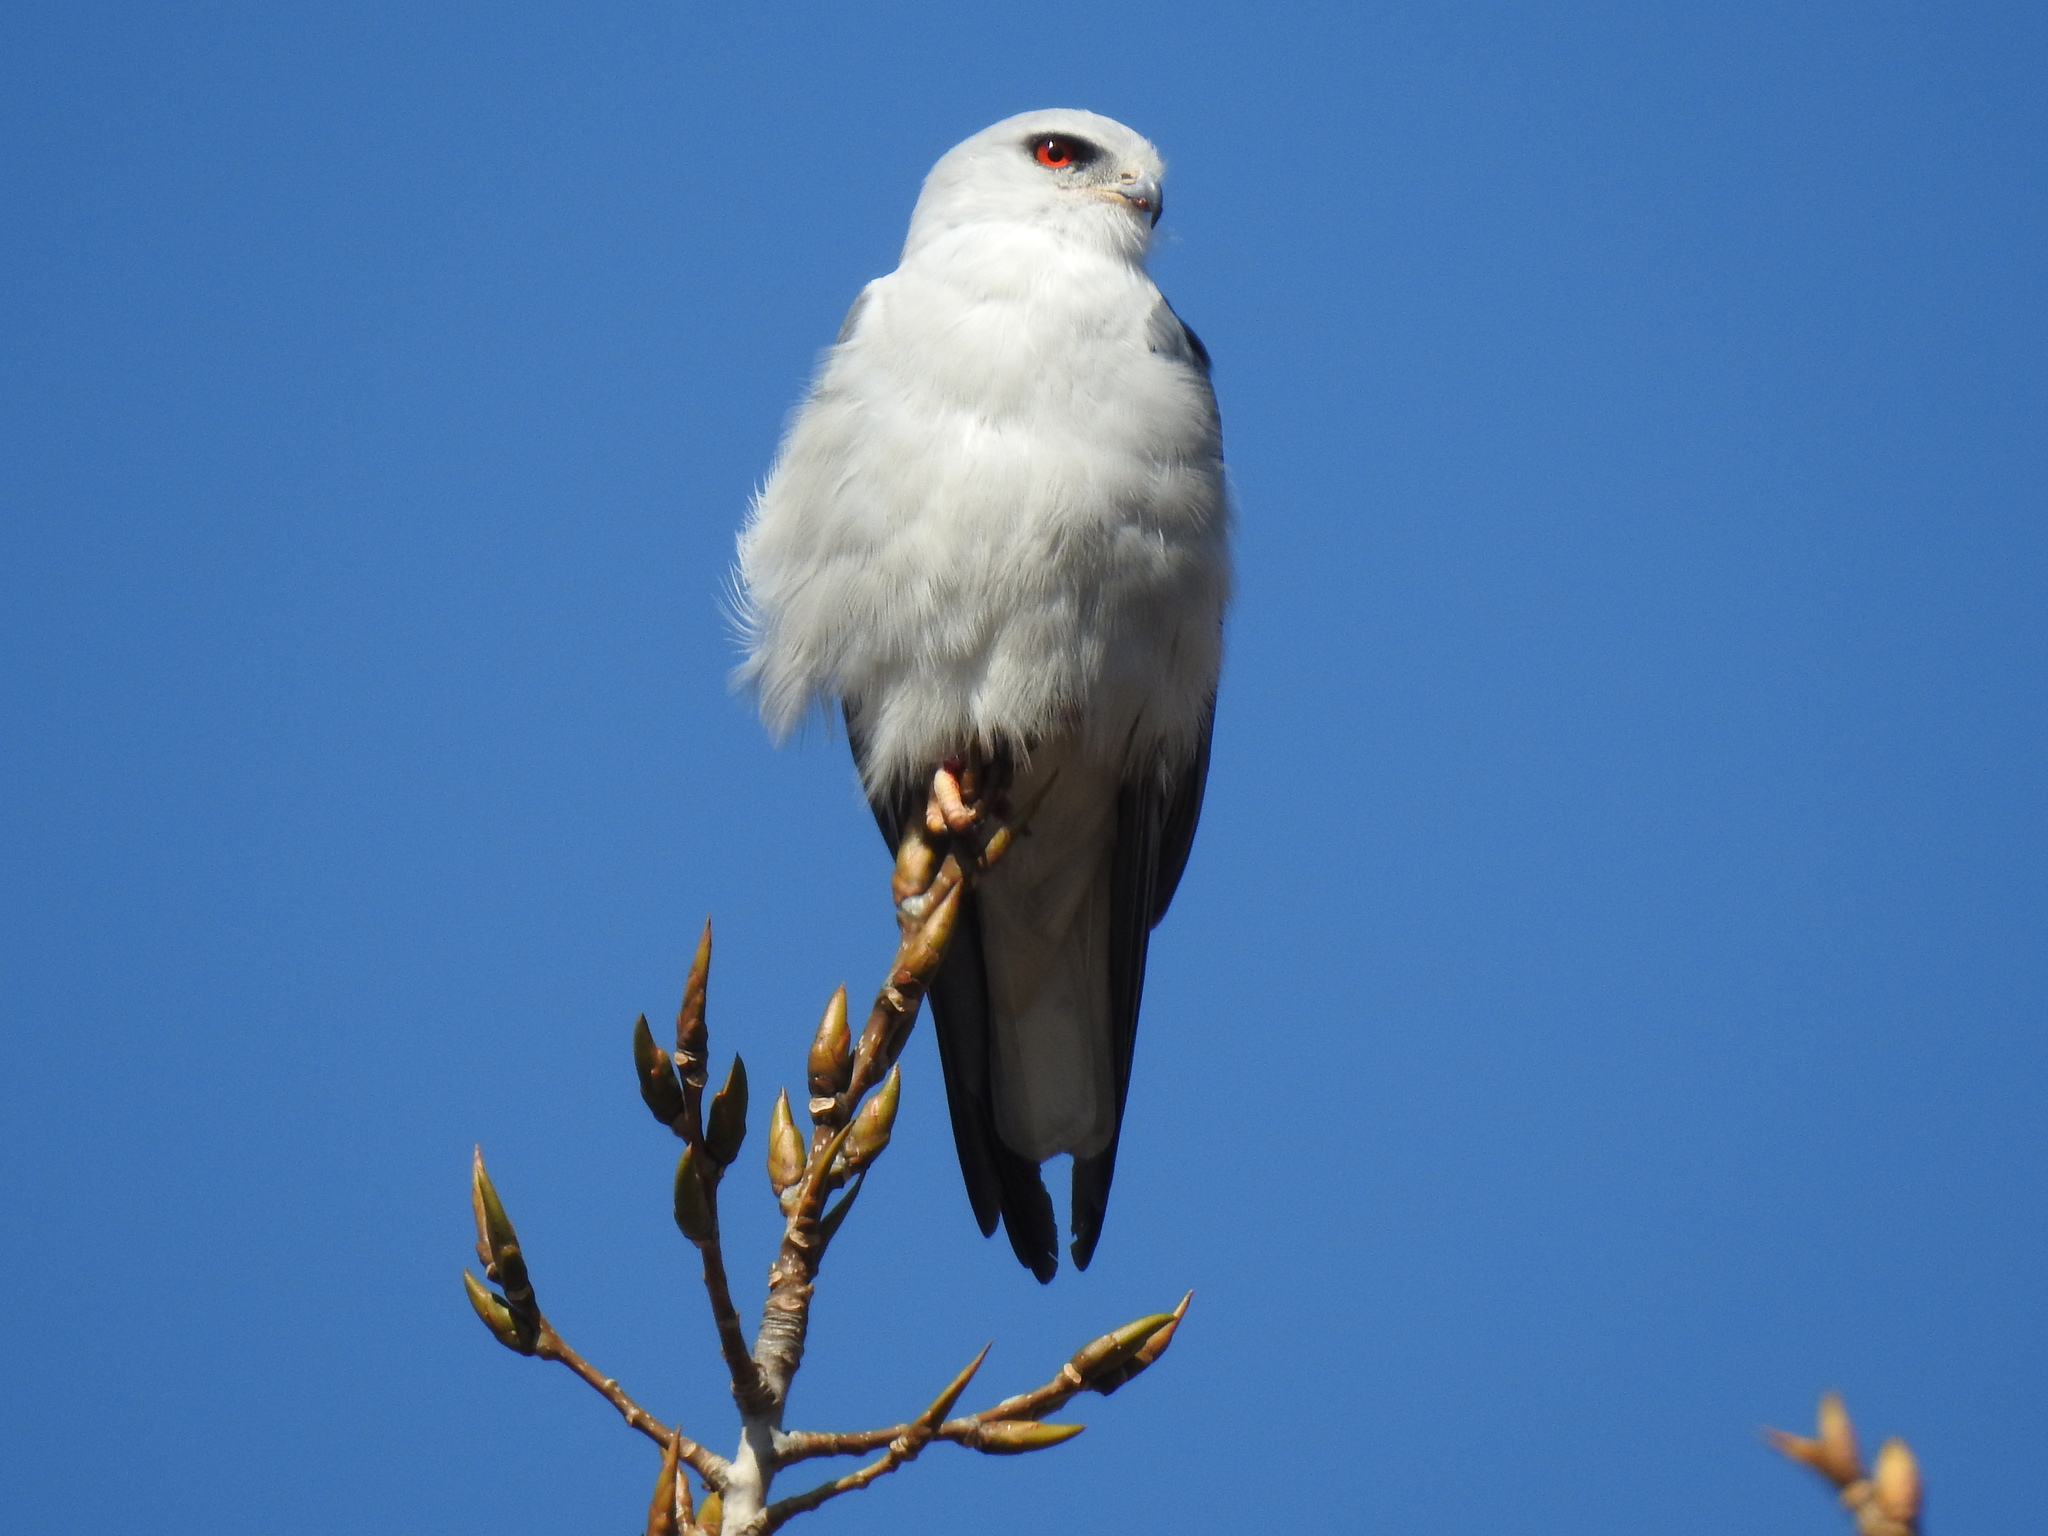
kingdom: Animalia
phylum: Chordata
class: Aves
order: Accipitriformes
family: Accipitridae
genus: Elanus
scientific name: Elanus caeruleus
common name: Black-winged kite
